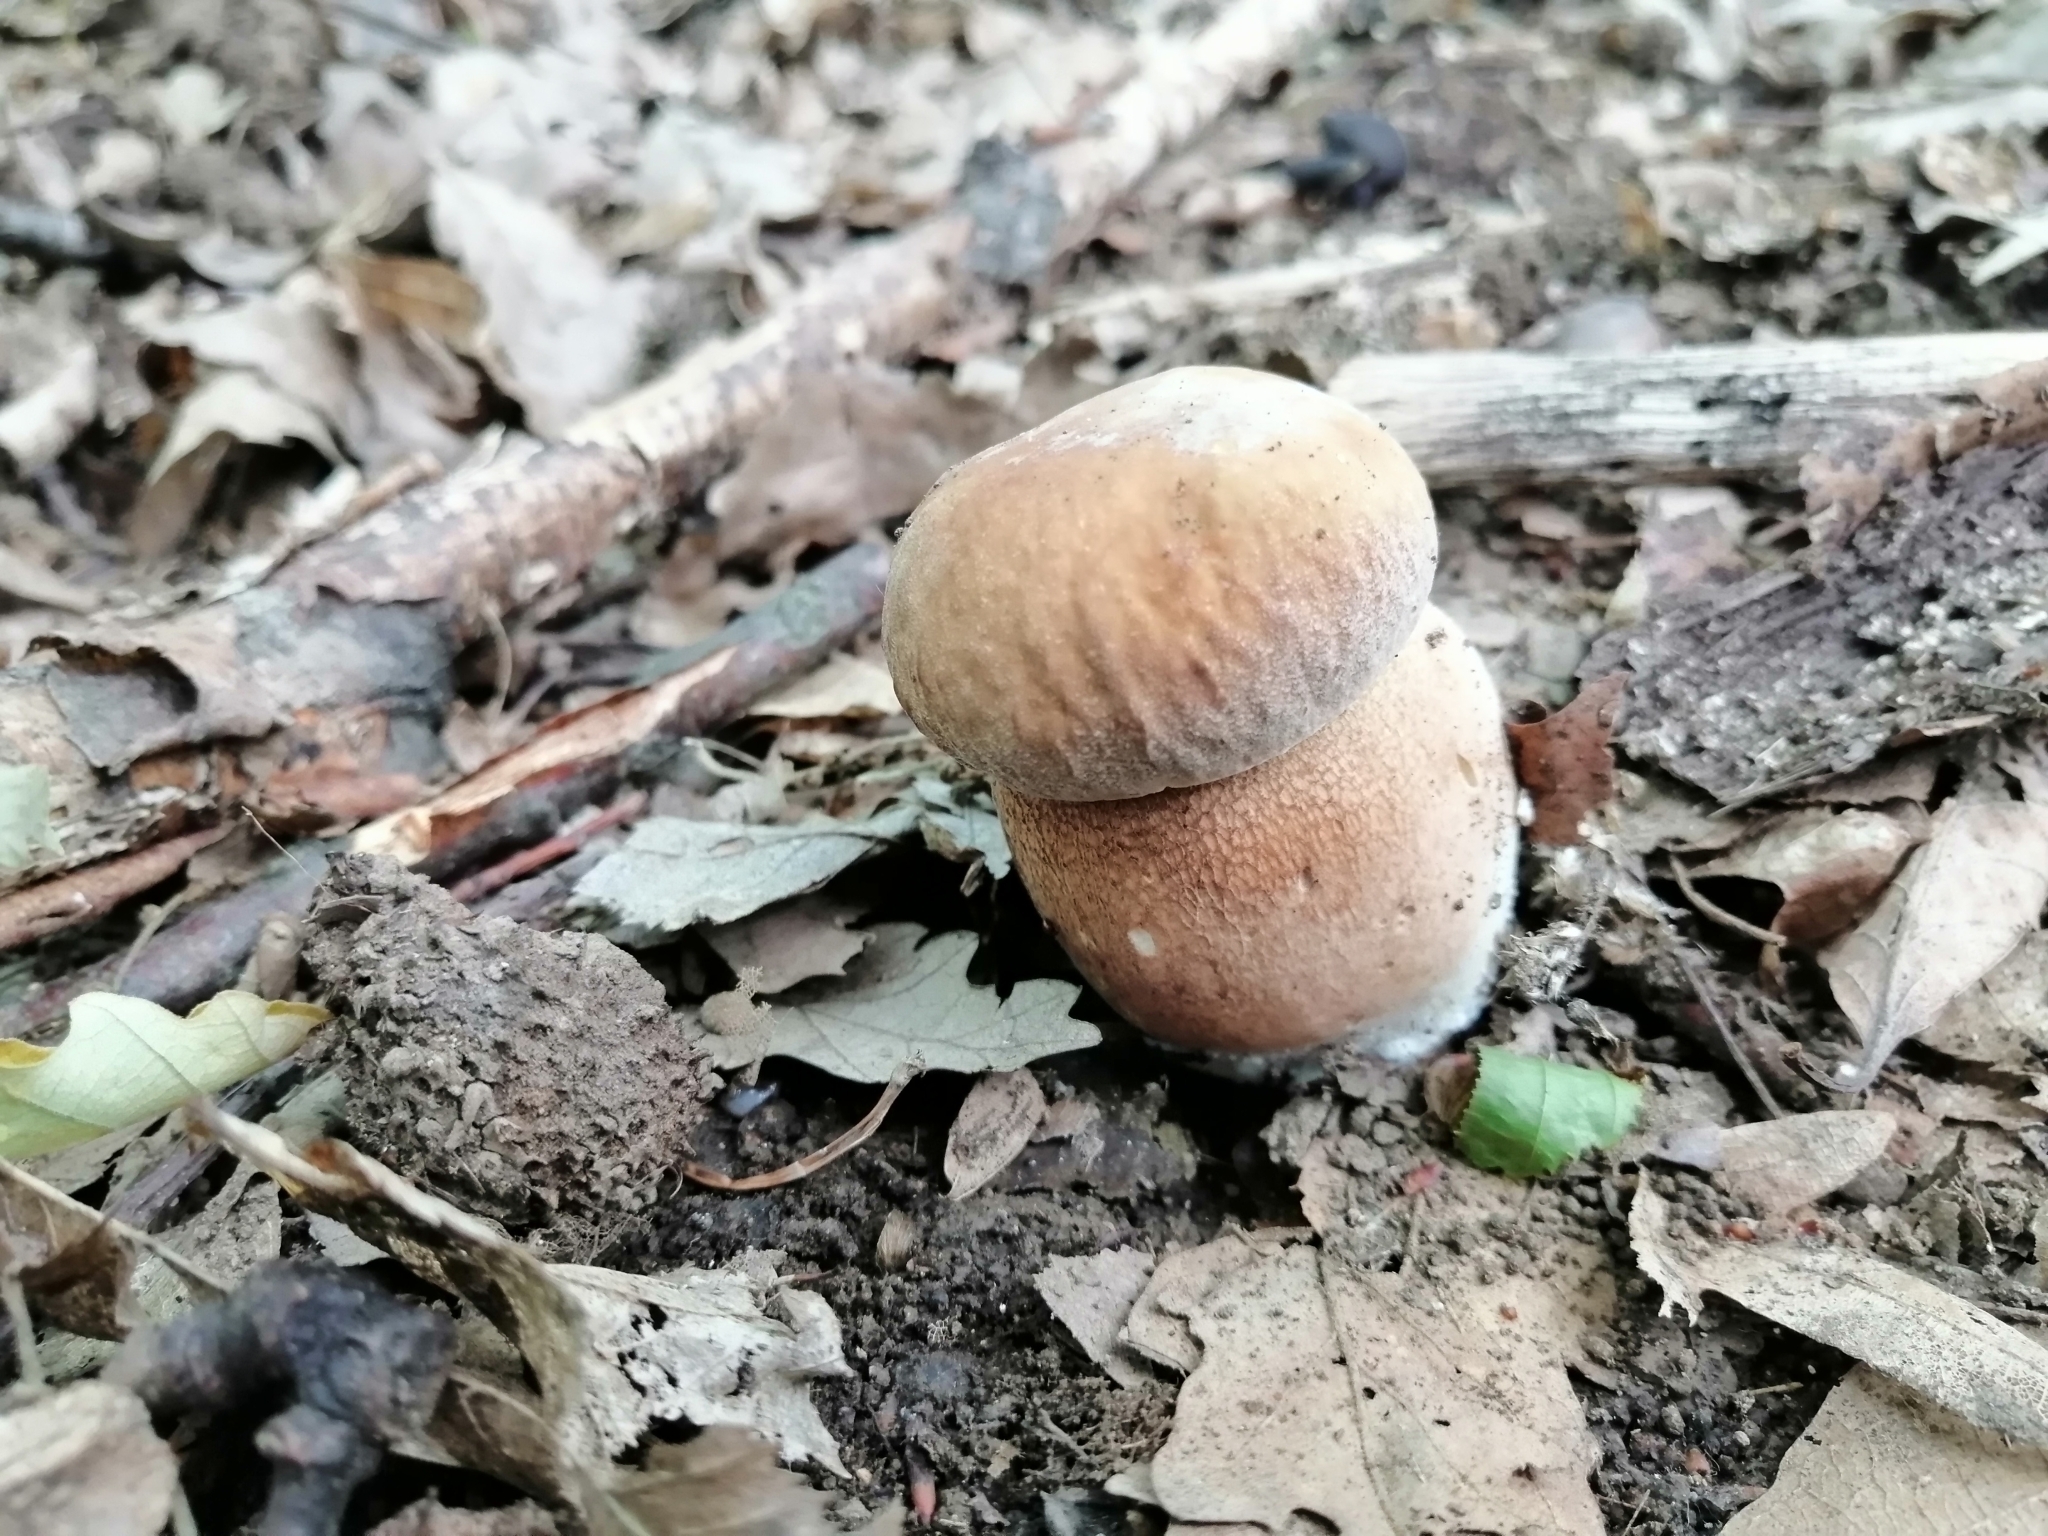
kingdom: Fungi
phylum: Basidiomycota
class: Agaricomycetes
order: Boletales
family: Boletaceae
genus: Boletus
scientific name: Boletus reticulatus
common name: Summer bolete
